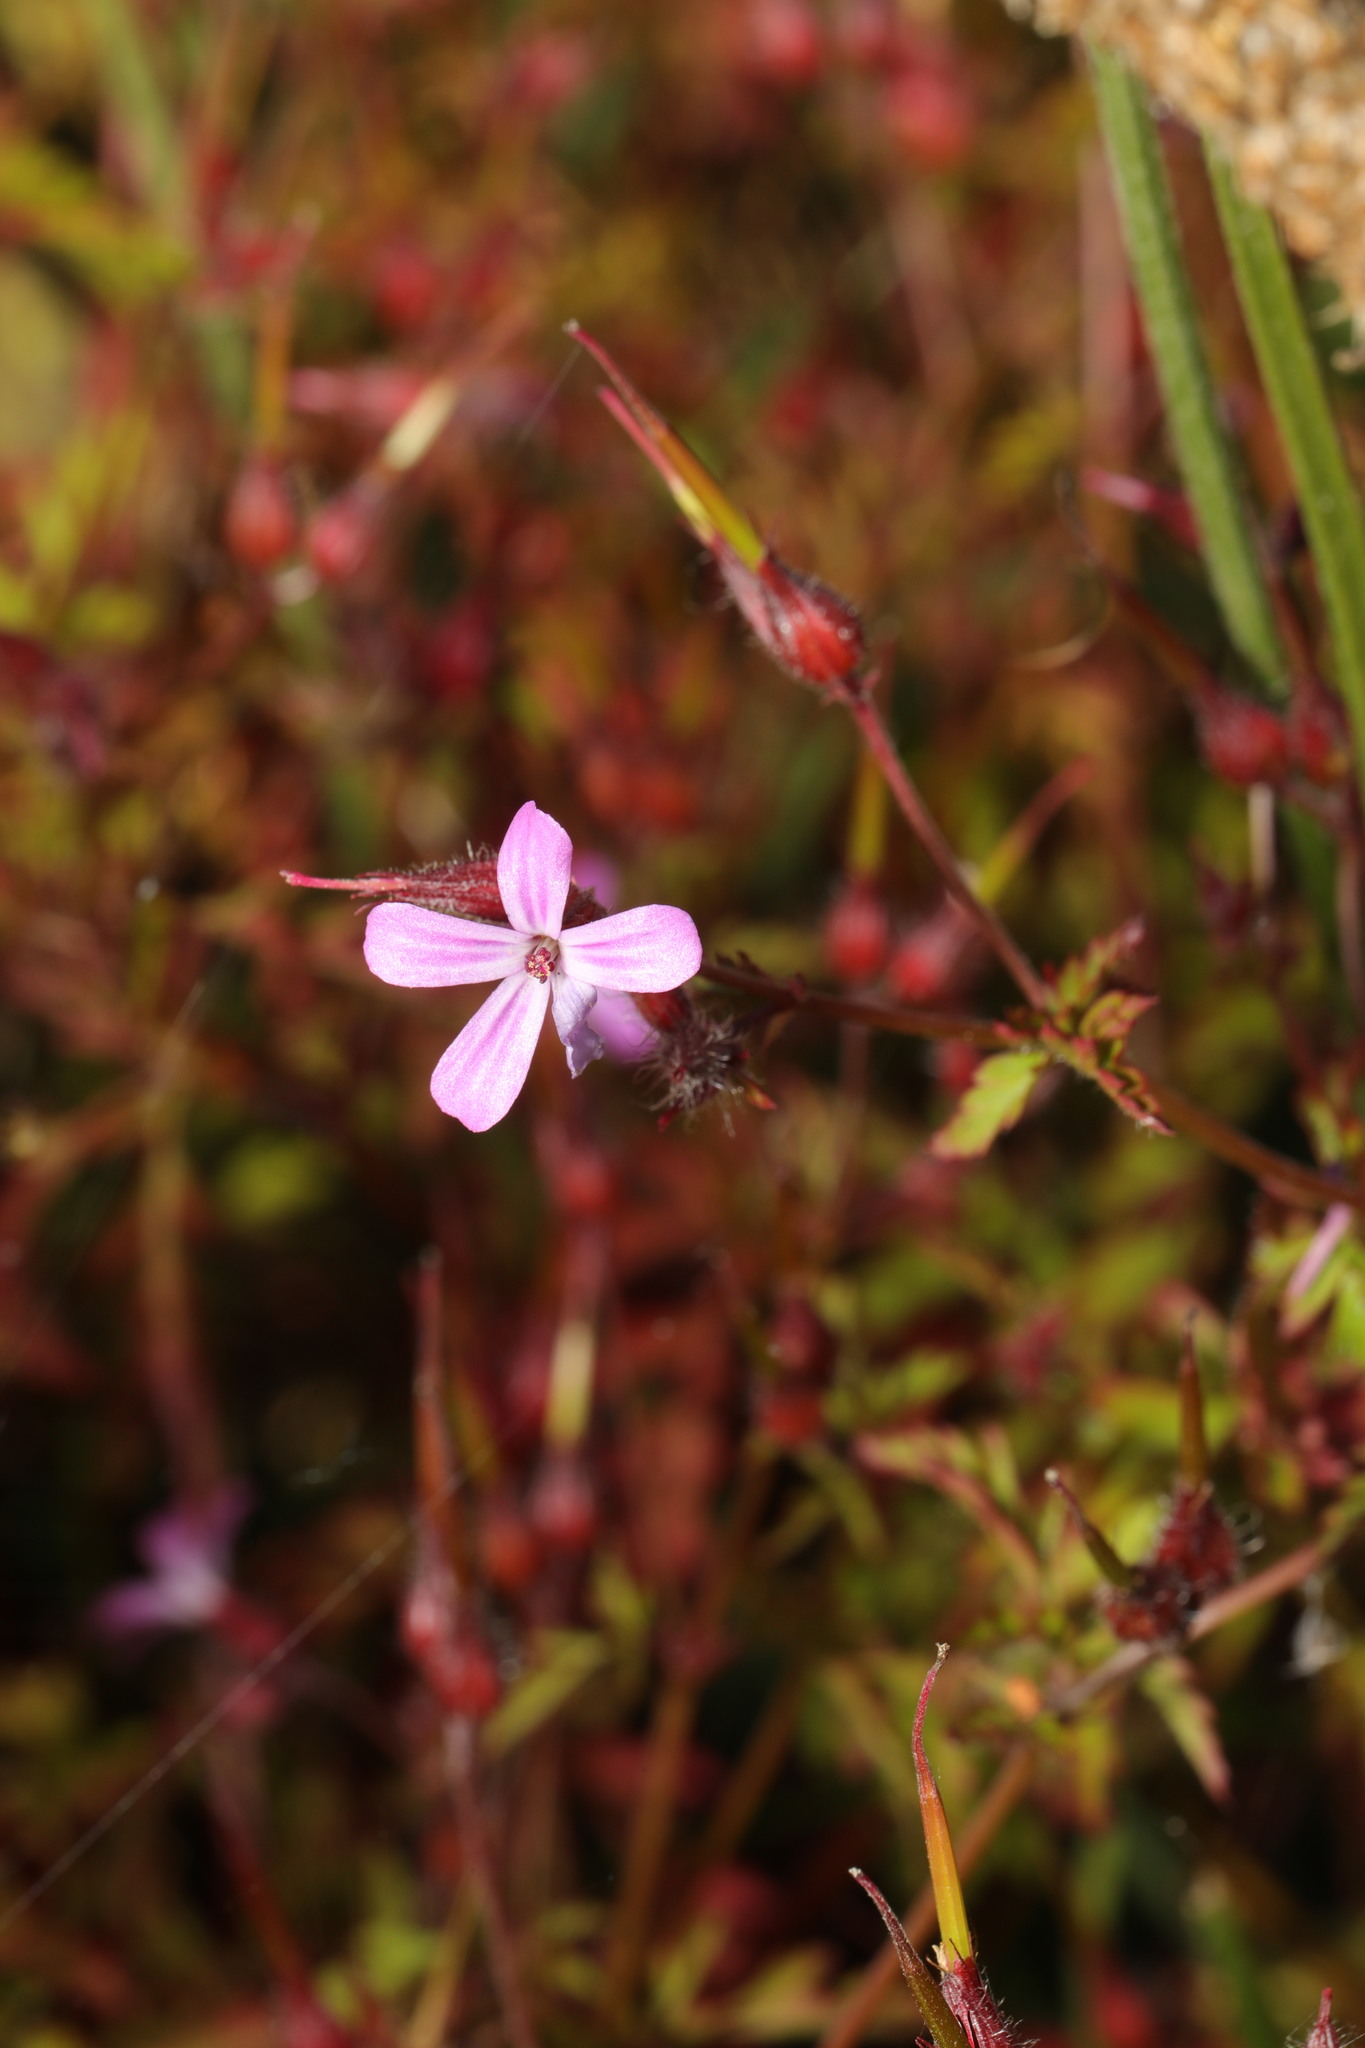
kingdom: Plantae
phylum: Tracheophyta
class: Magnoliopsida
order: Geraniales
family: Geraniaceae
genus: Geranium
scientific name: Geranium robertianum
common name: Herb-robert
